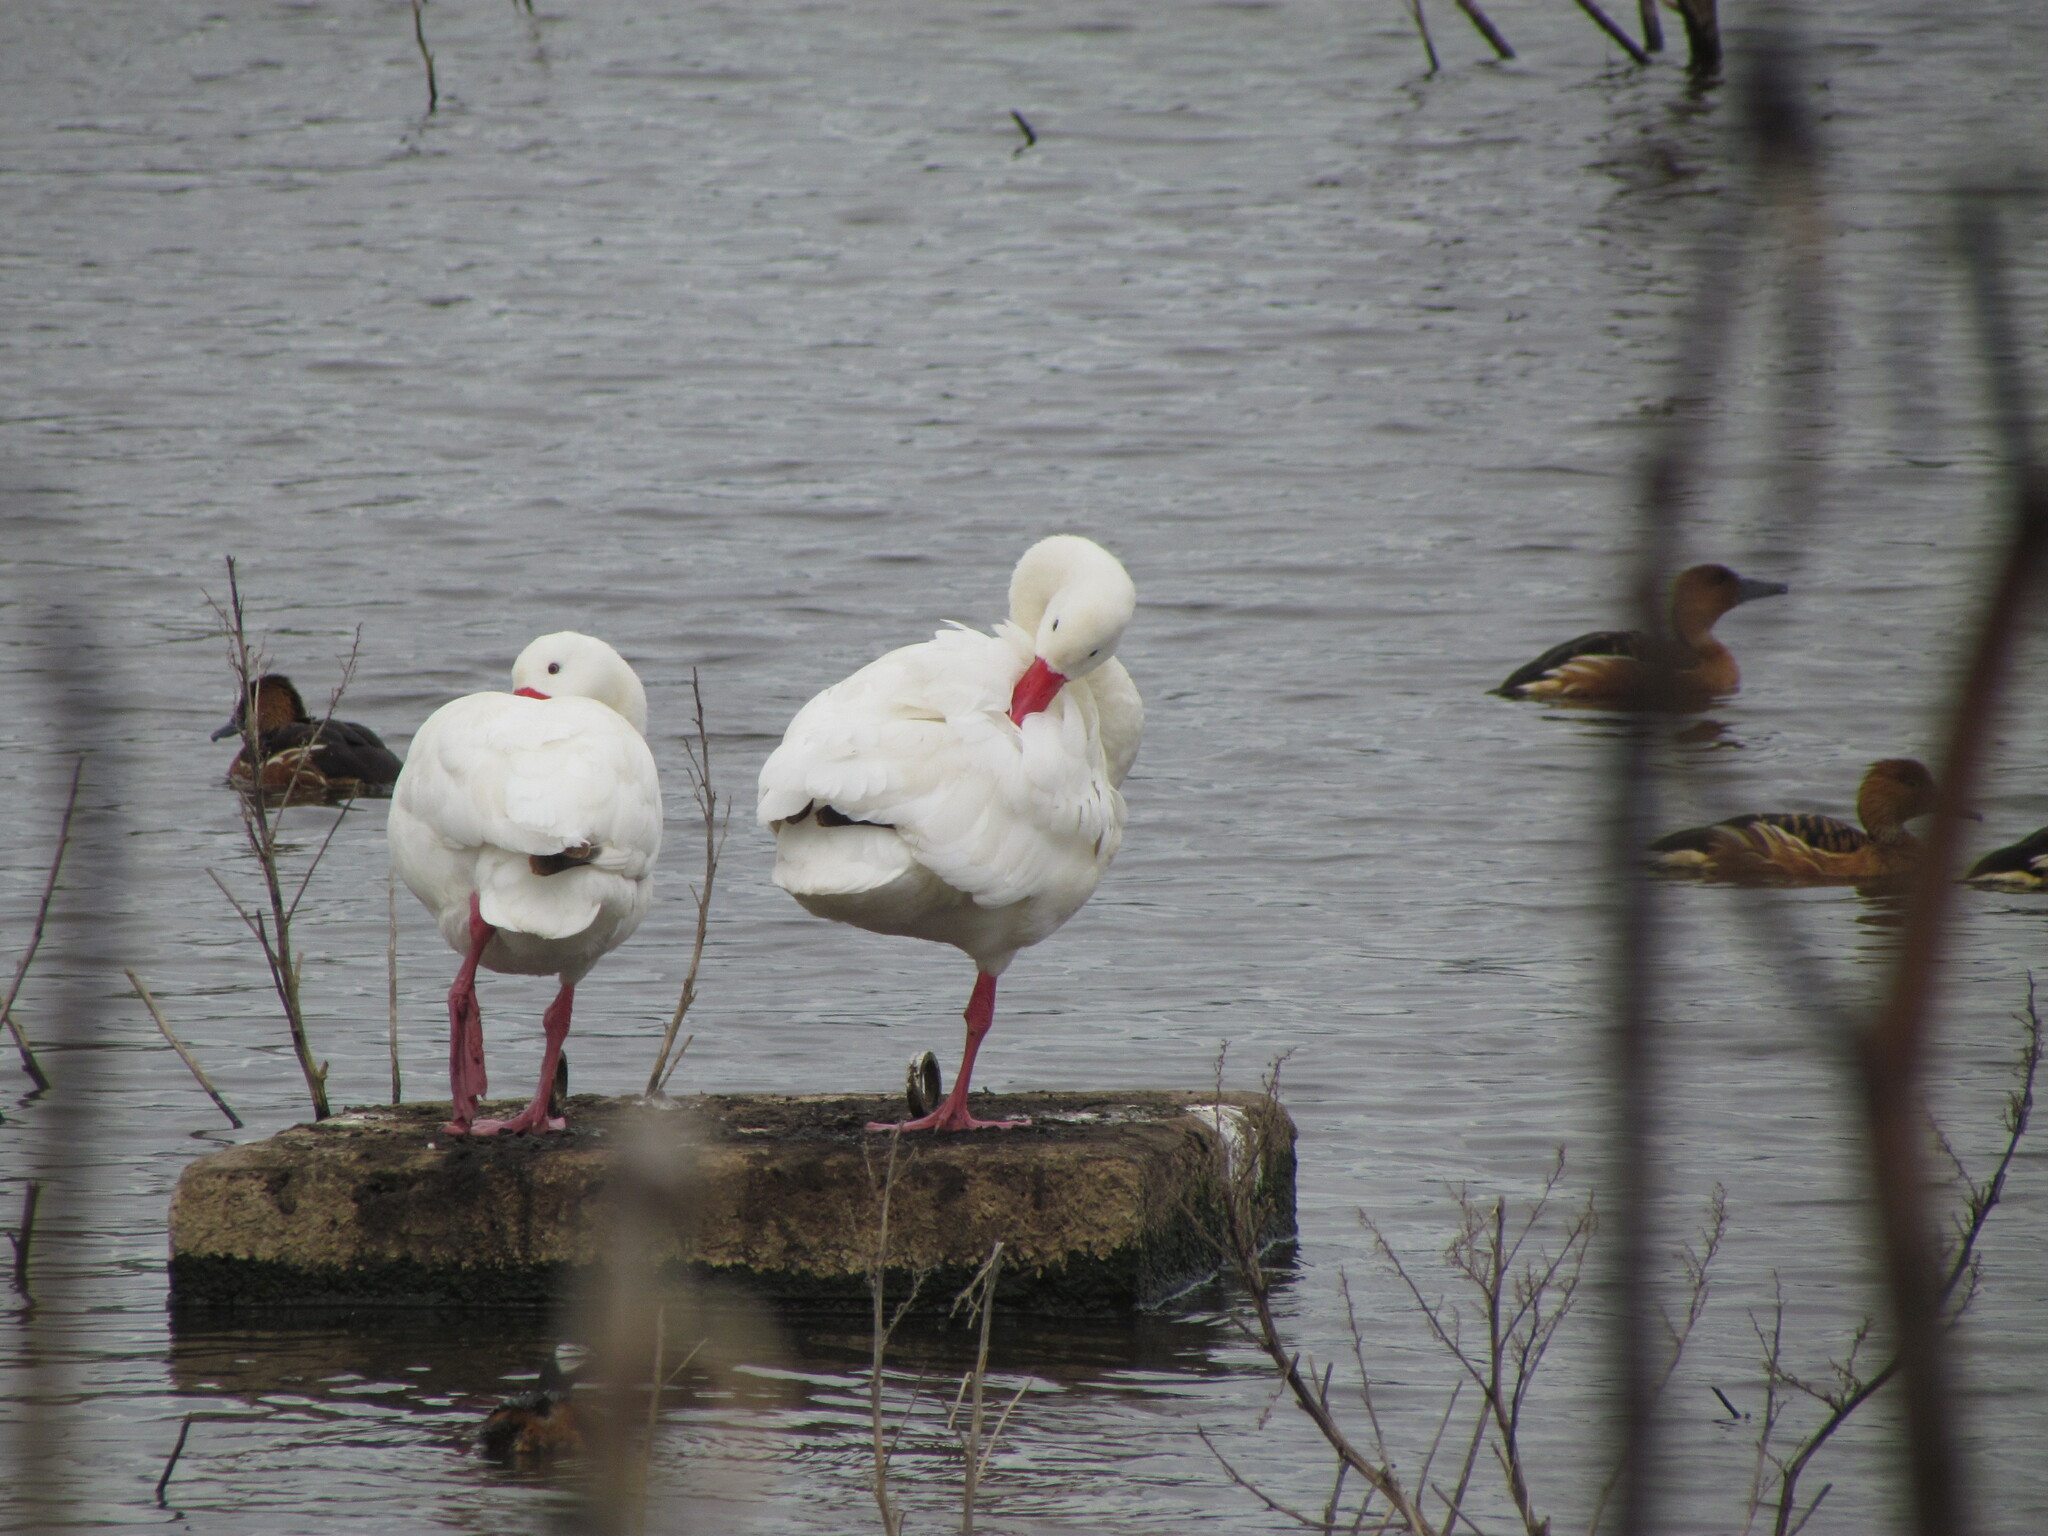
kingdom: Animalia
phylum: Chordata
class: Aves
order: Anseriformes
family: Anatidae
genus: Coscoroba
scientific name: Coscoroba coscoroba
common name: Coscoroba swan
